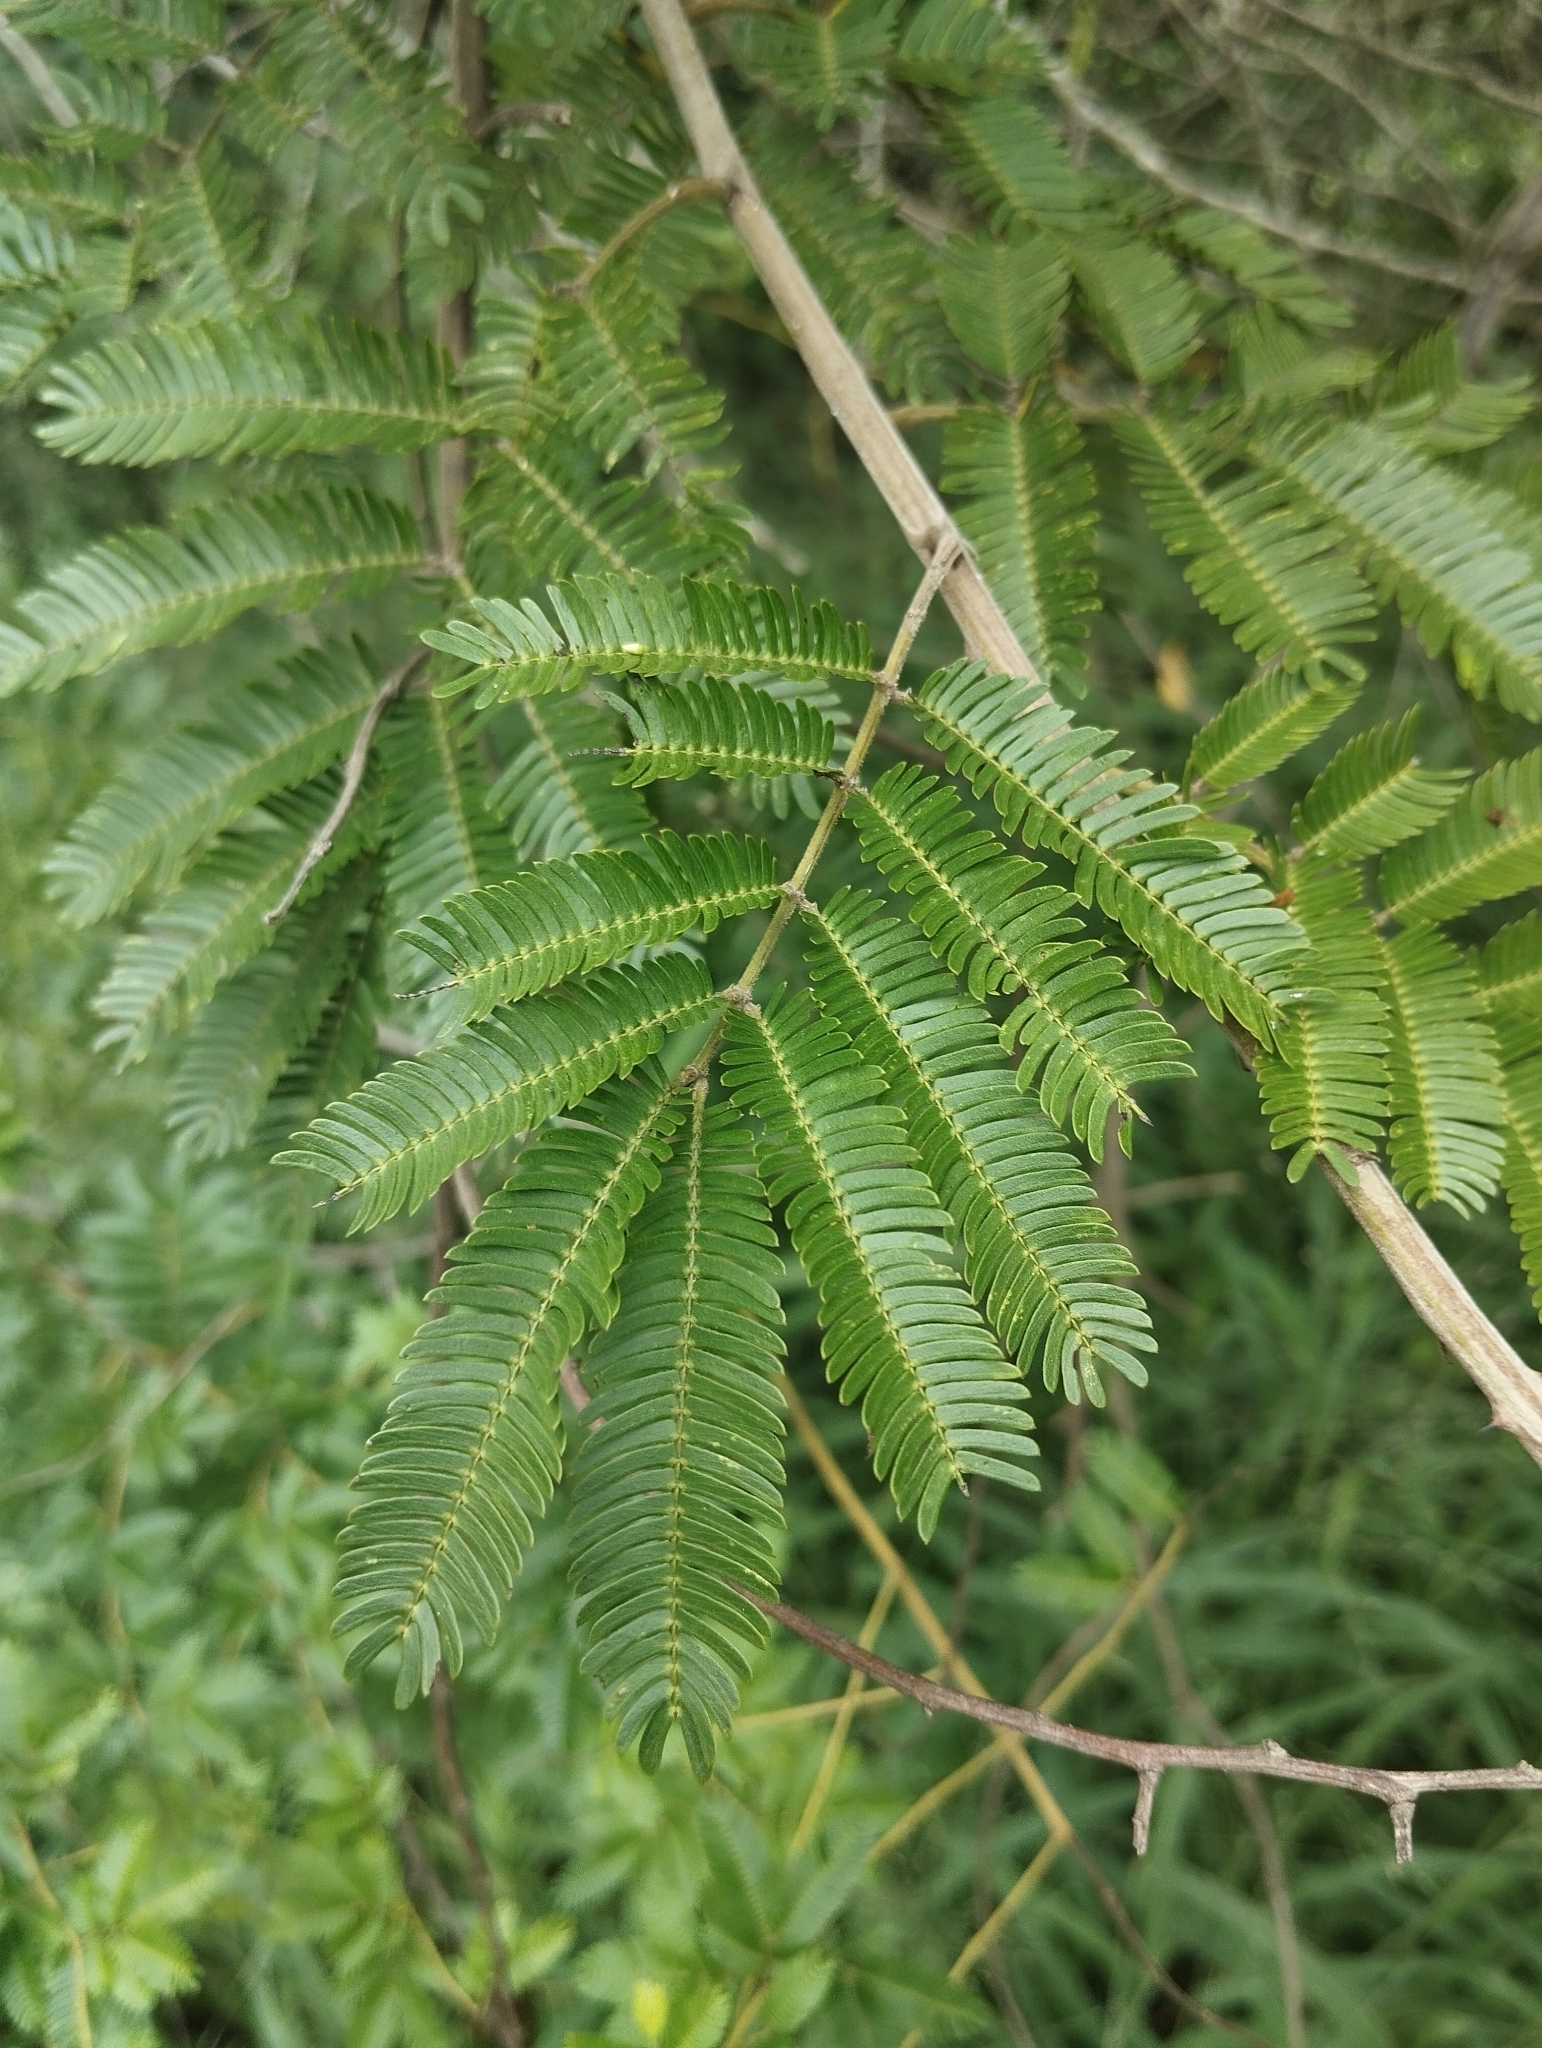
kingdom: Plantae
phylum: Tracheophyta
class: Magnoliopsida
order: Fabales
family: Fabaceae
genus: Mimosa
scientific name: Mimosa bimucronata
